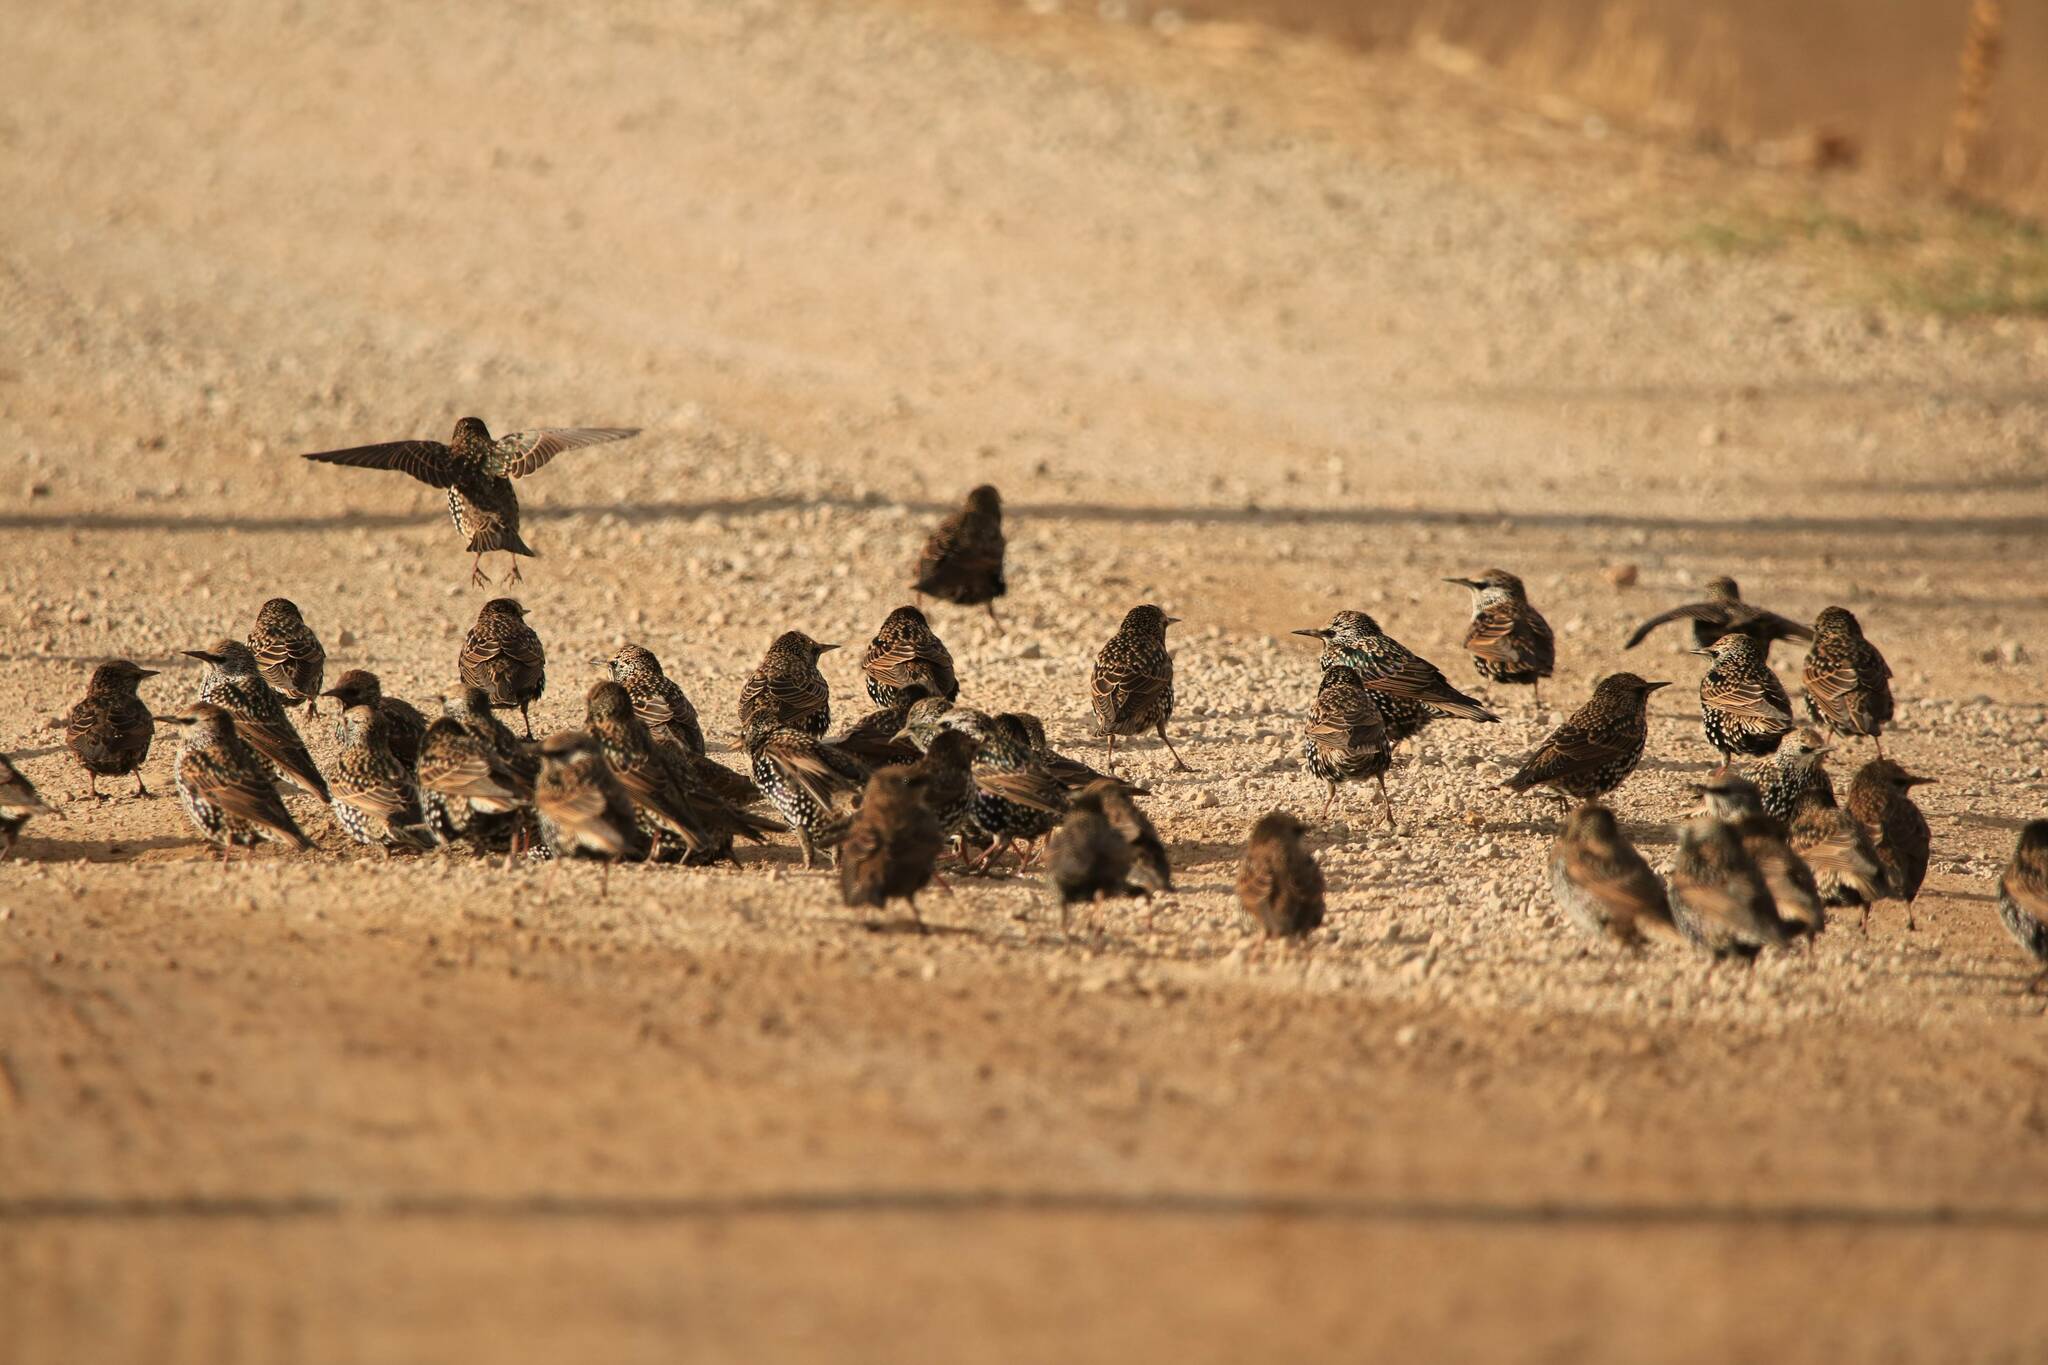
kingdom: Animalia
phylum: Chordata
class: Aves
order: Passeriformes
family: Sturnidae
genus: Sturnus
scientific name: Sturnus vulgaris
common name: Common starling
